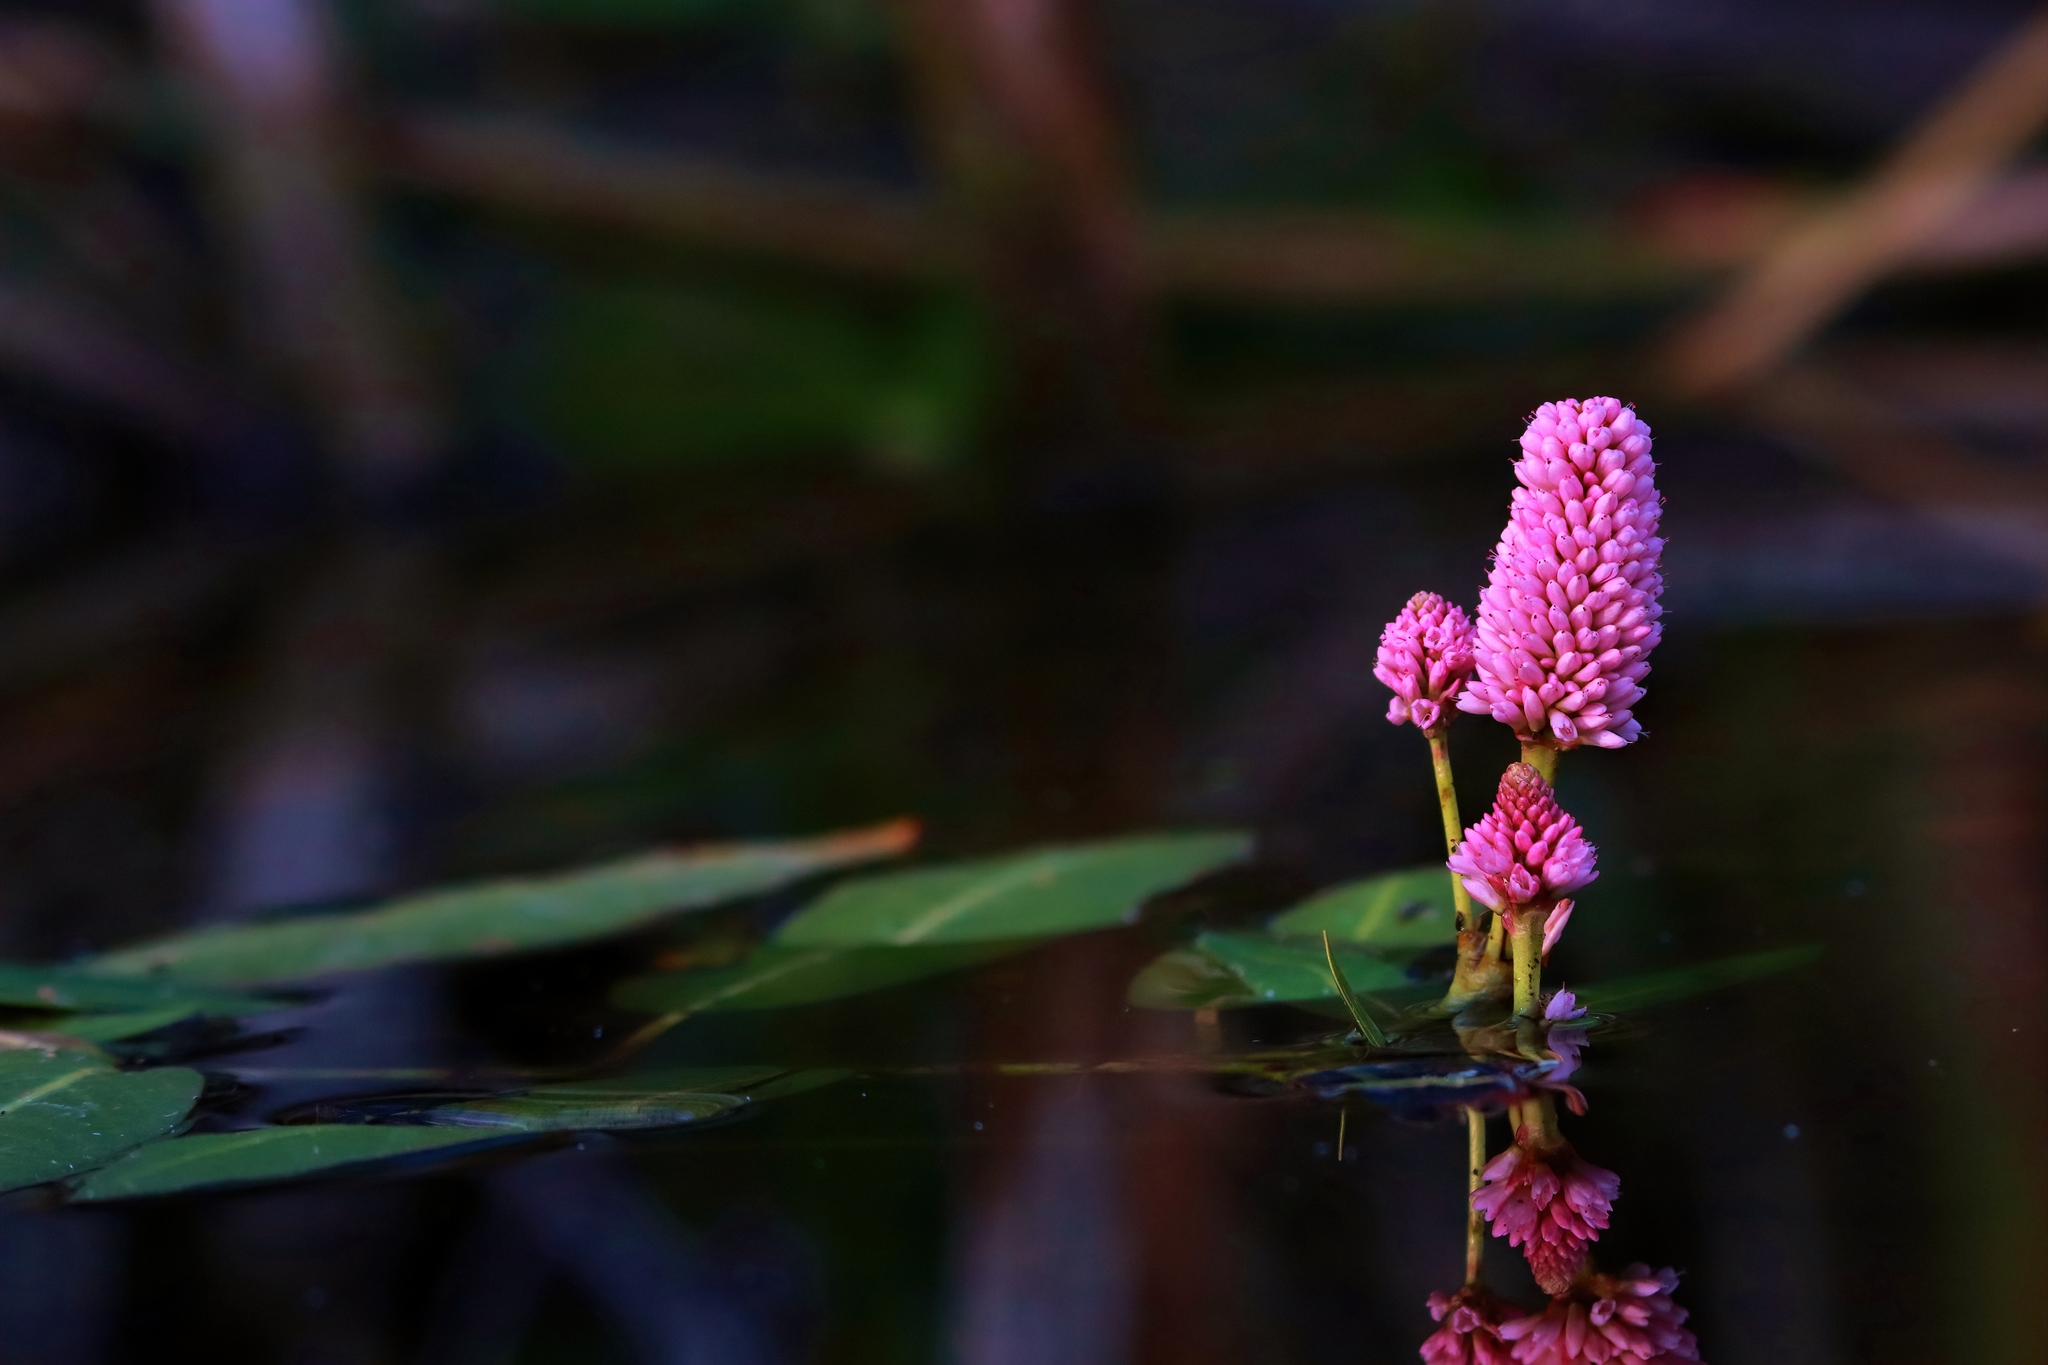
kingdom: Plantae
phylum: Tracheophyta
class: Magnoliopsida
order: Caryophyllales
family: Polygonaceae
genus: Persicaria
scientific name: Persicaria amphibia
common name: Amphibious bistort
